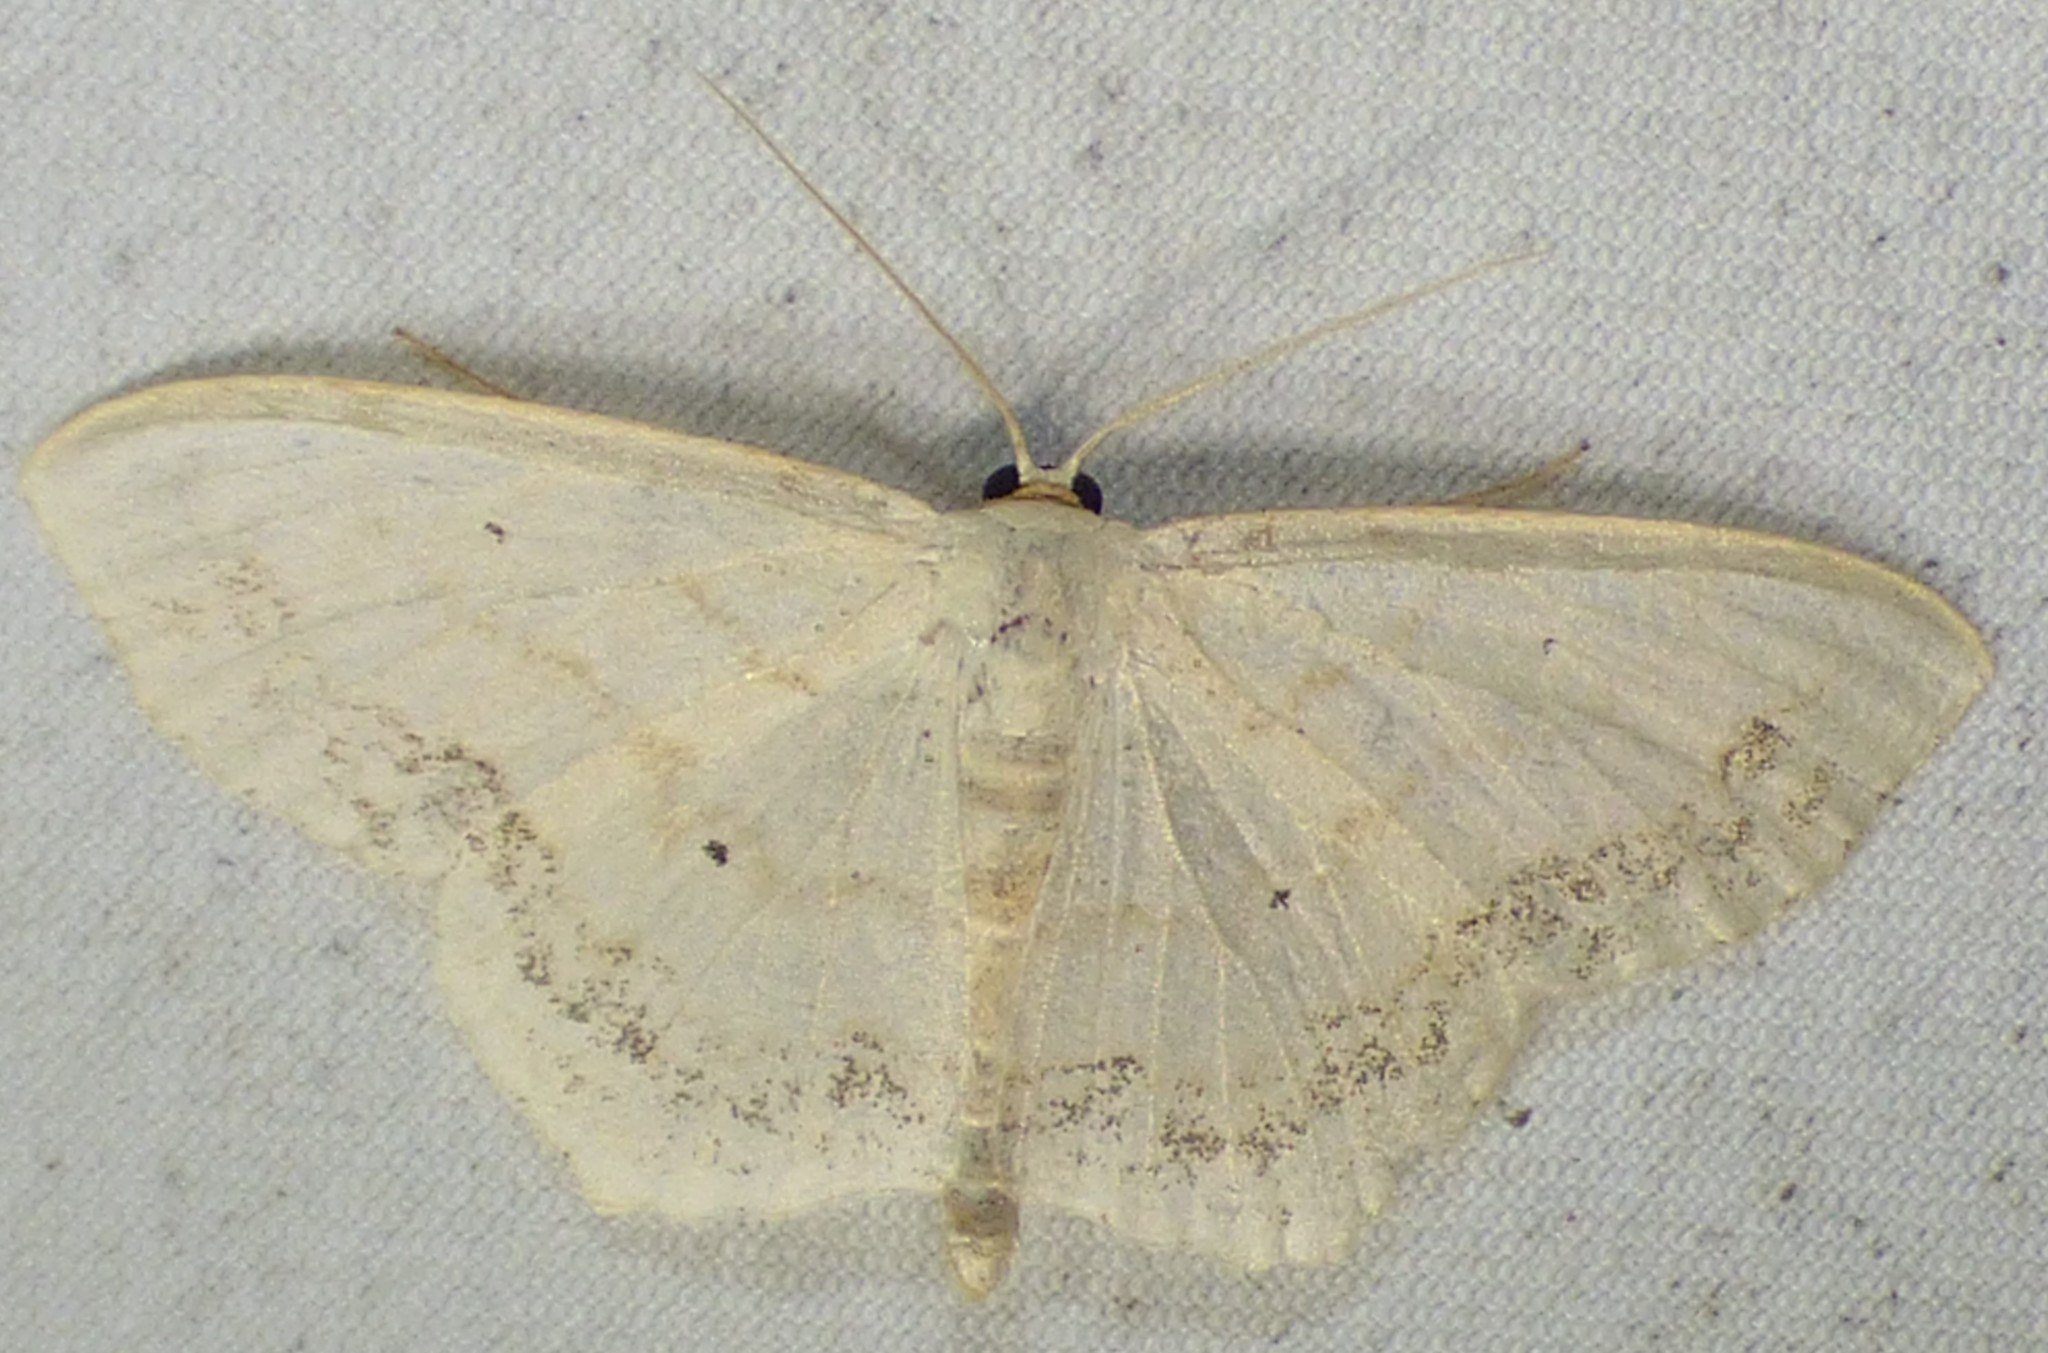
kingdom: Animalia
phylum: Arthropoda
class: Insecta
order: Lepidoptera
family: Geometridae
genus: Scopula
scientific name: Scopula limboundata
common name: Large lace border
